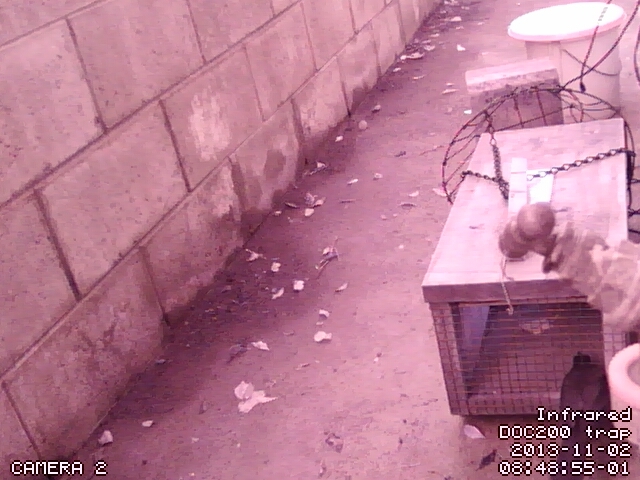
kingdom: Animalia
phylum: Chordata
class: Aves
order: Passeriformes
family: Turdidae
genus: Turdus
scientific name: Turdus merula
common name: Common blackbird
